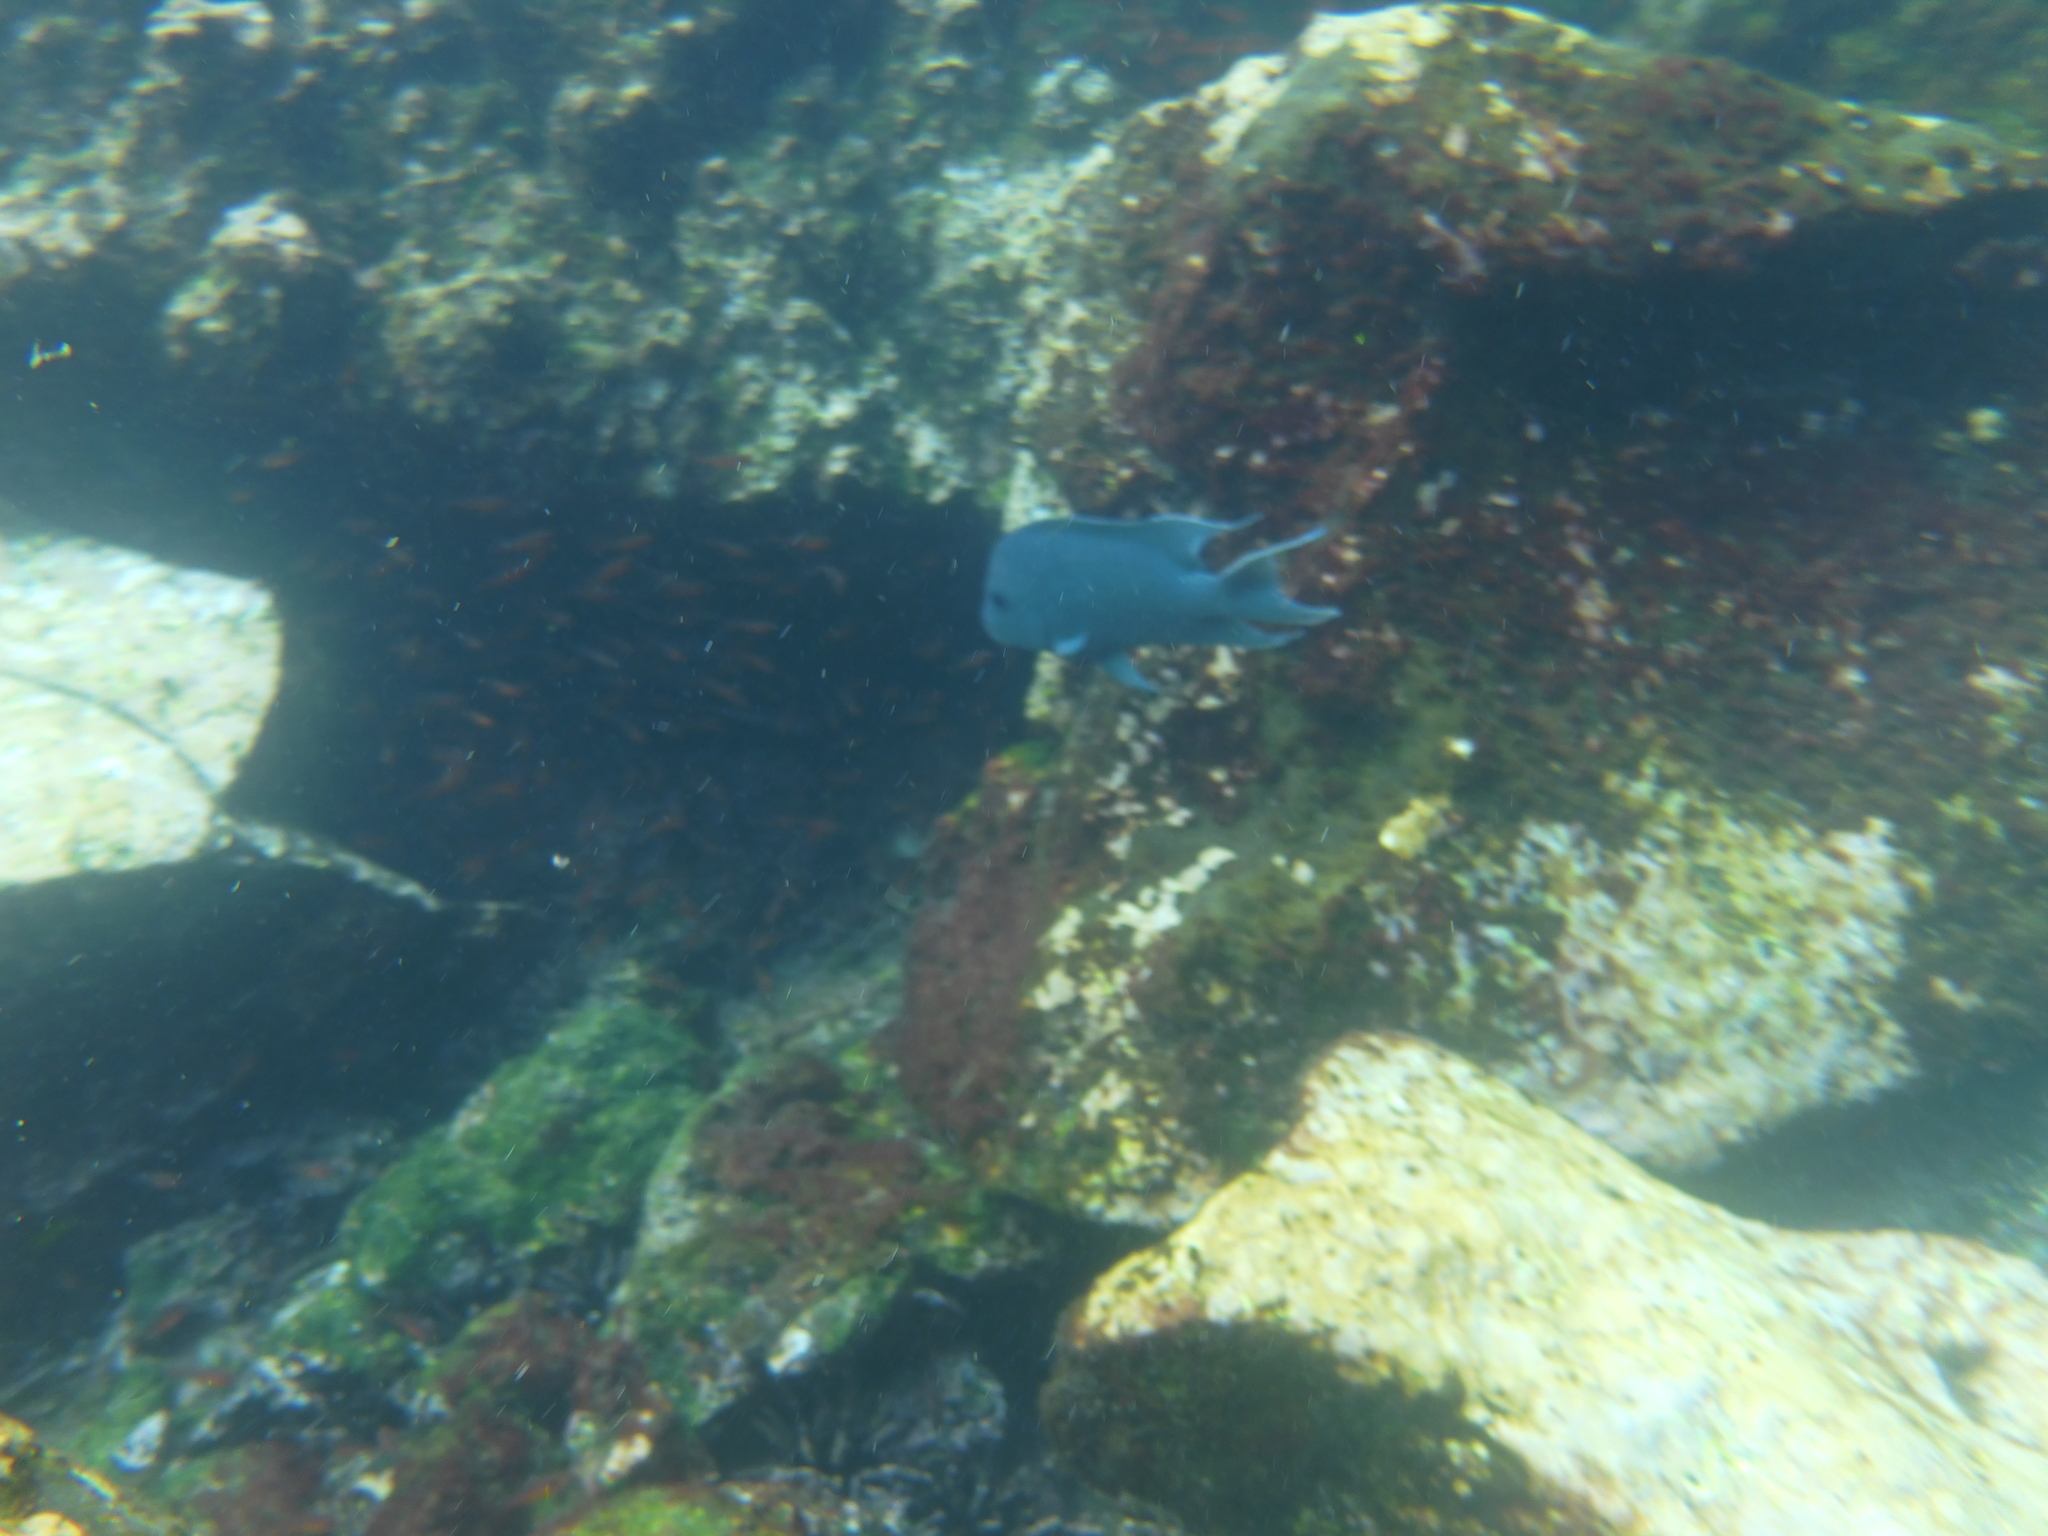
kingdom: Animalia
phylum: Chordata
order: Perciformes
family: Pomacentridae
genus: Microspathodon
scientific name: Microspathodon dorsalis
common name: Giant damselfish
